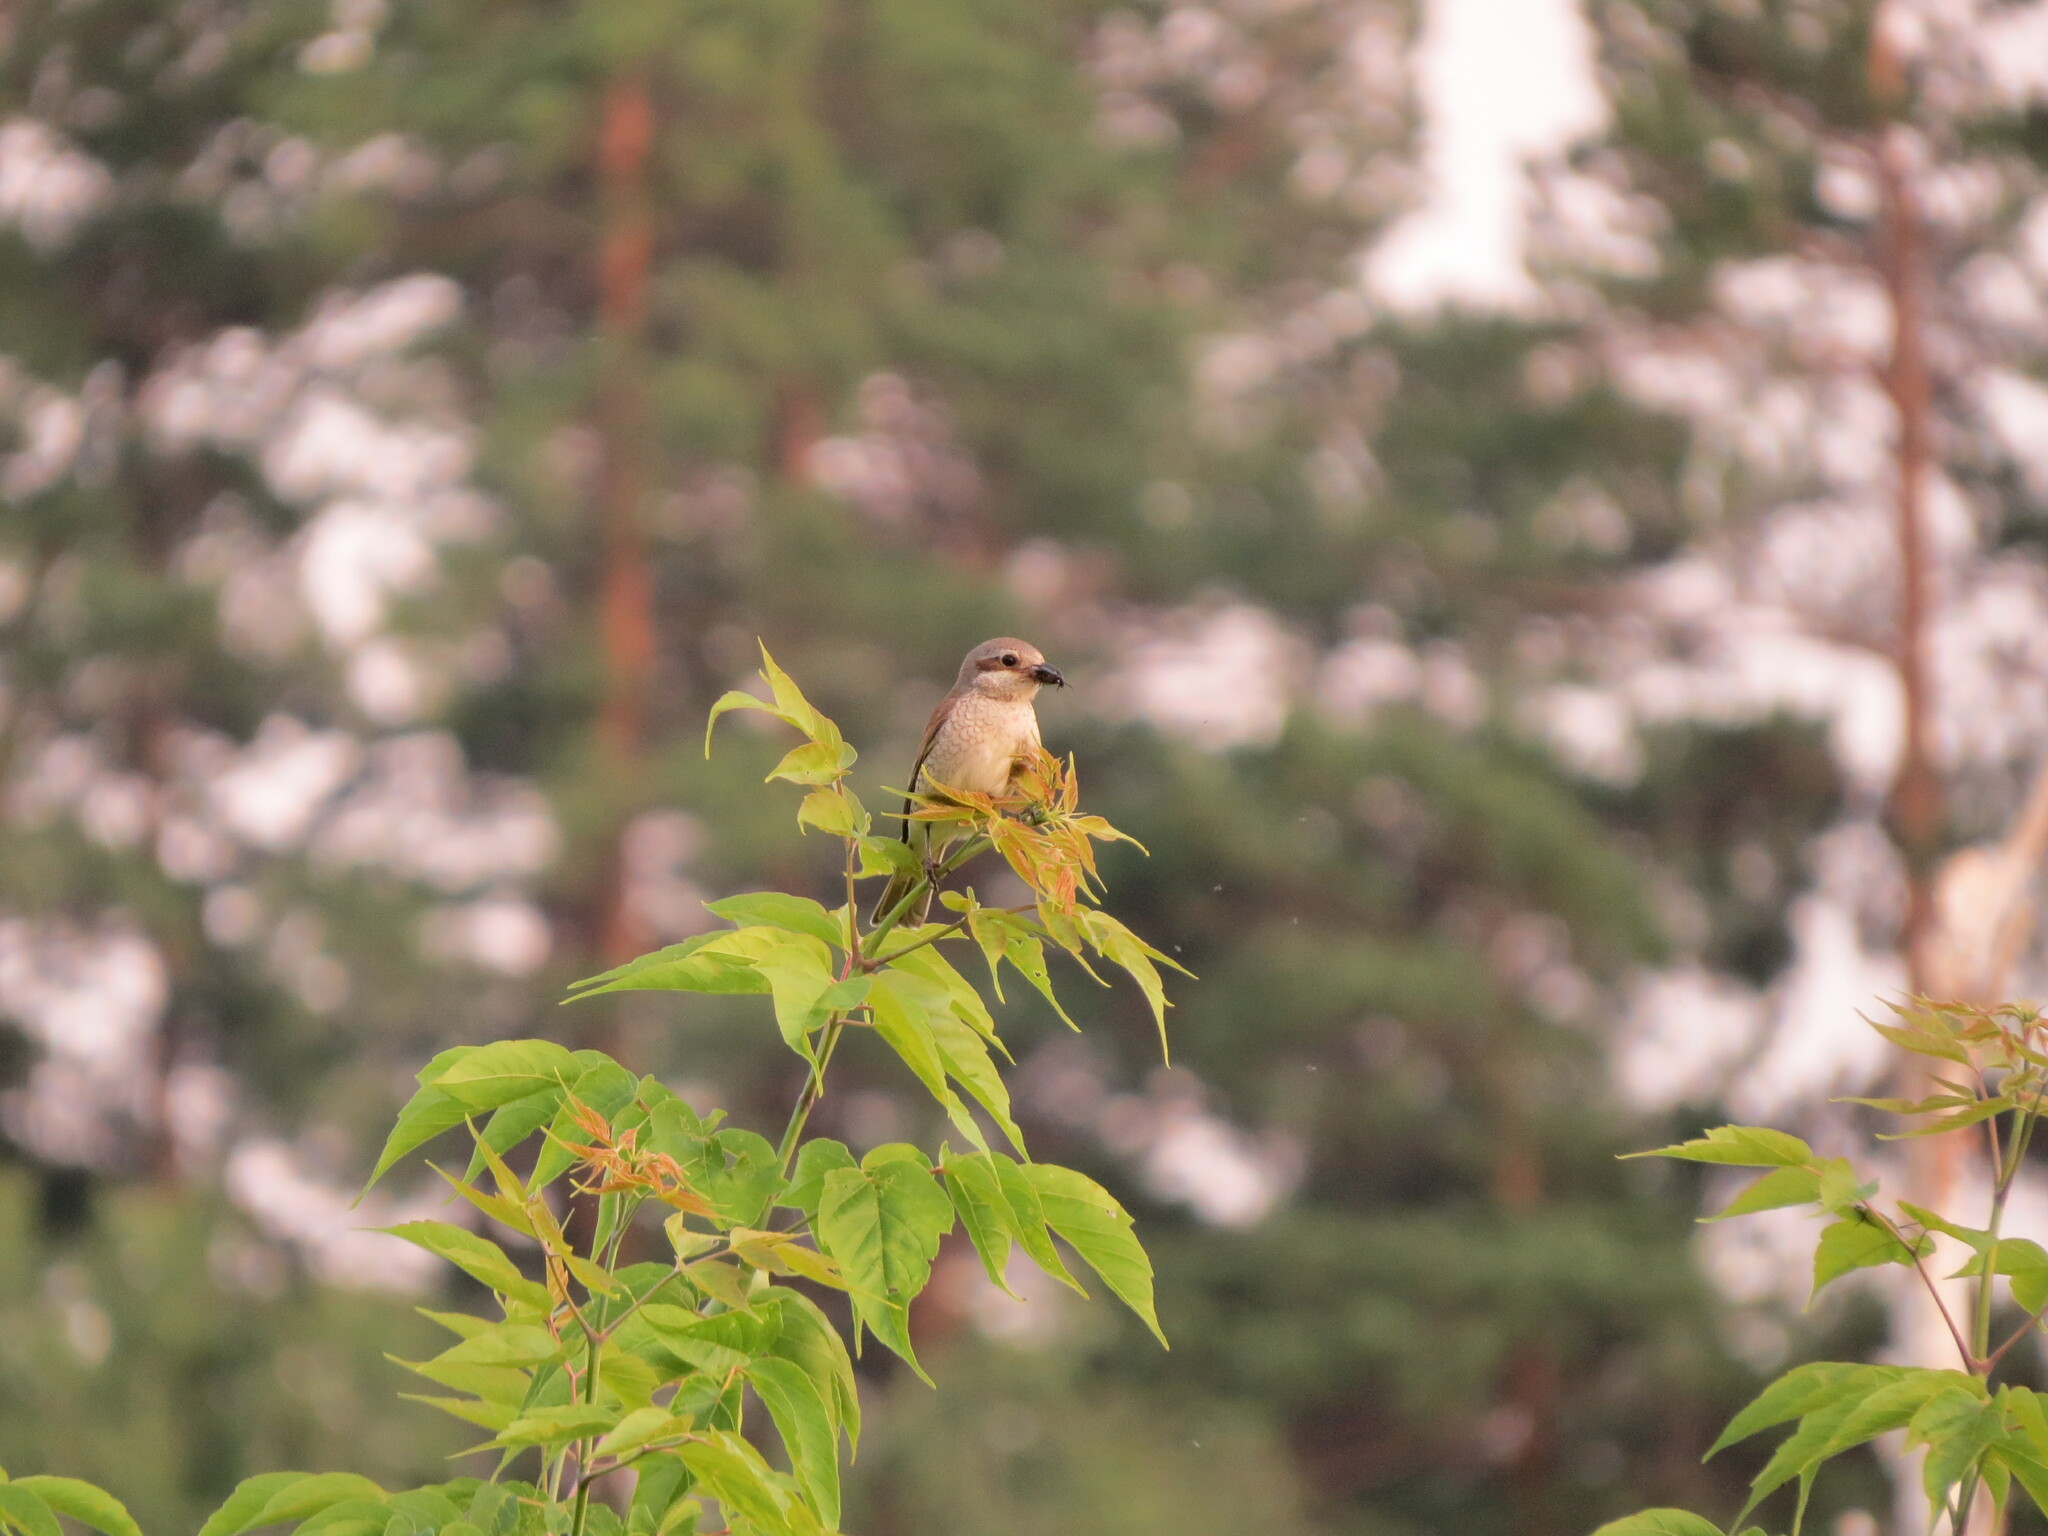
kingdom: Animalia
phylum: Chordata
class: Aves
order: Passeriformes
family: Laniidae
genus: Lanius
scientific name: Lanius collurio
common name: Red-backed shrike
